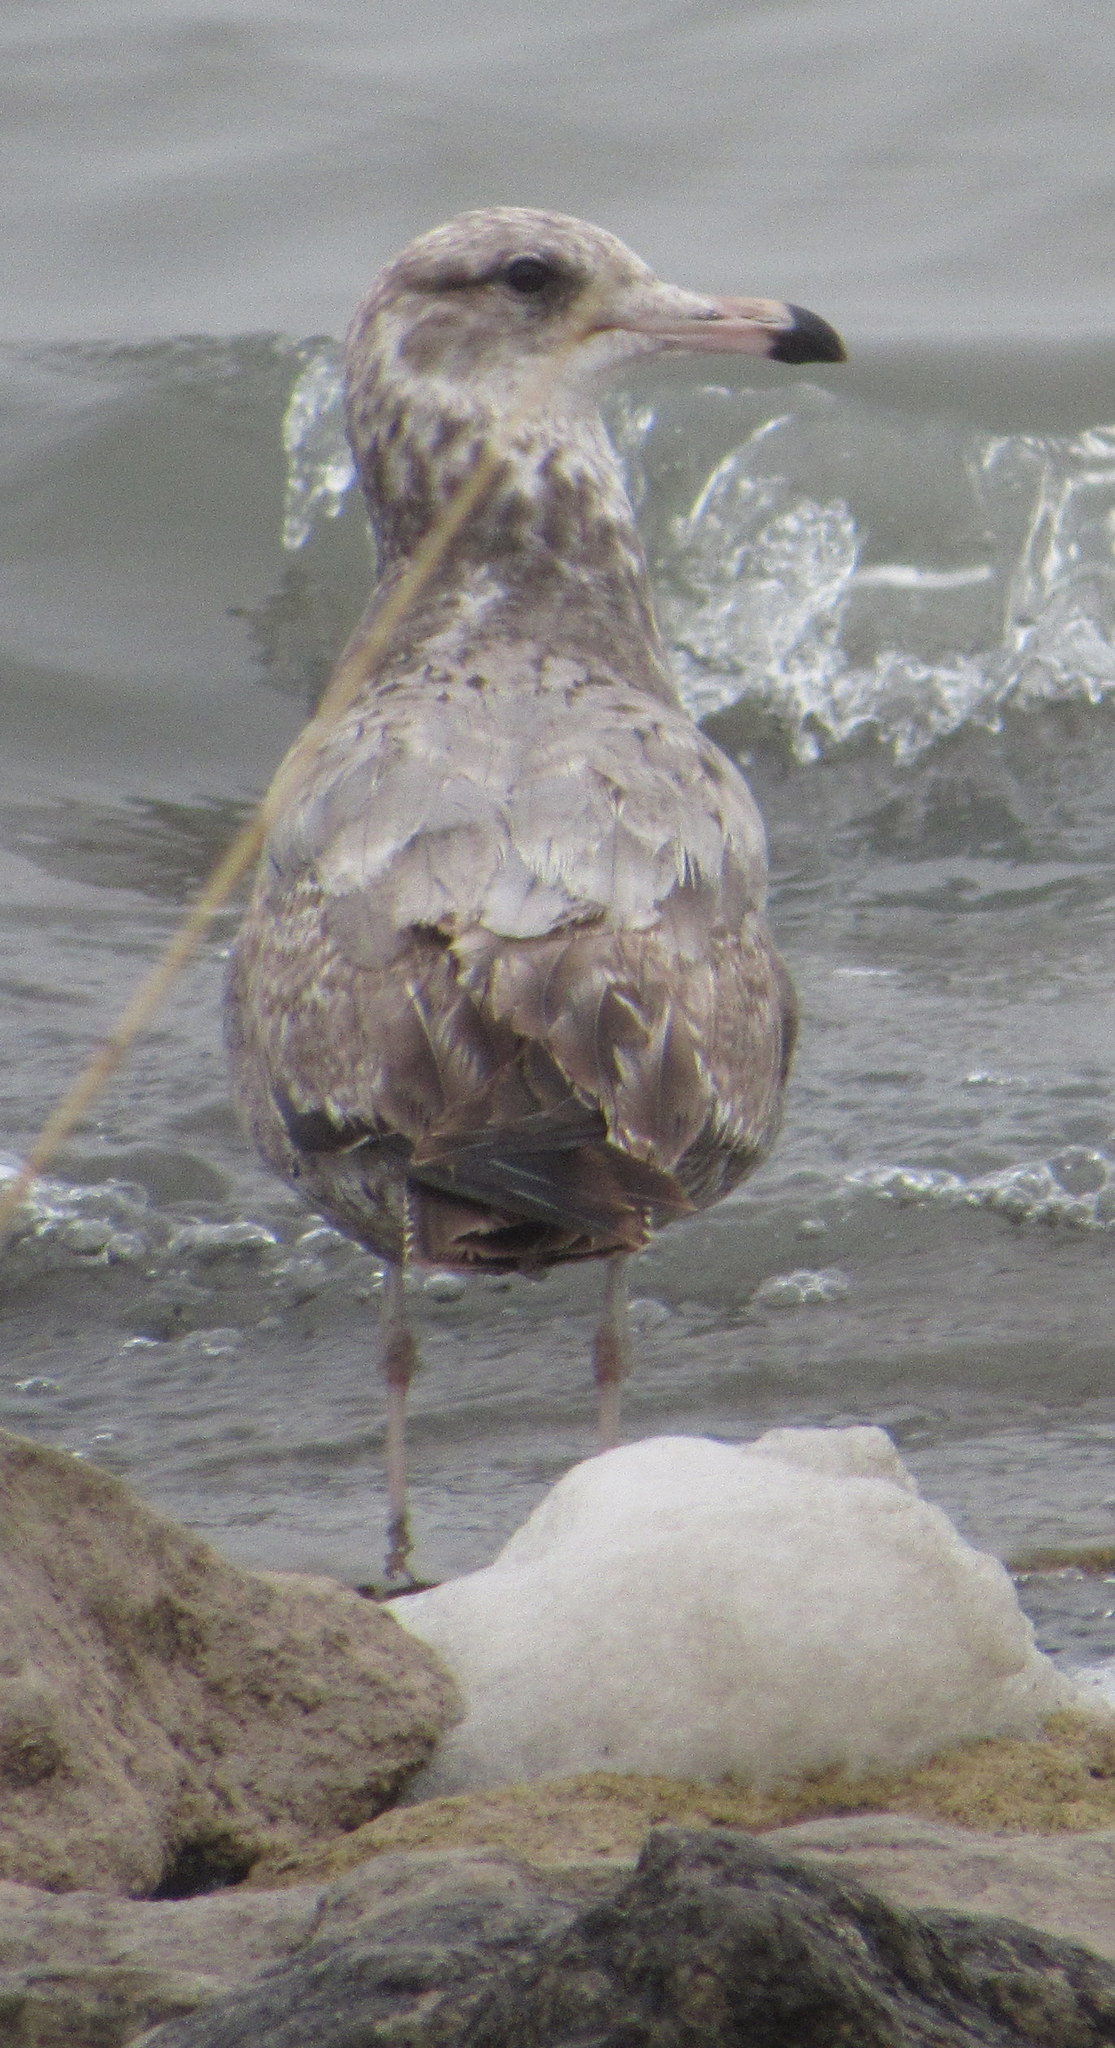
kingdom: Animalia
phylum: Chordata
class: Aves
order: Charadriiformes
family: Laridae
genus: Larus
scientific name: Larus argentatus
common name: Herring gull
